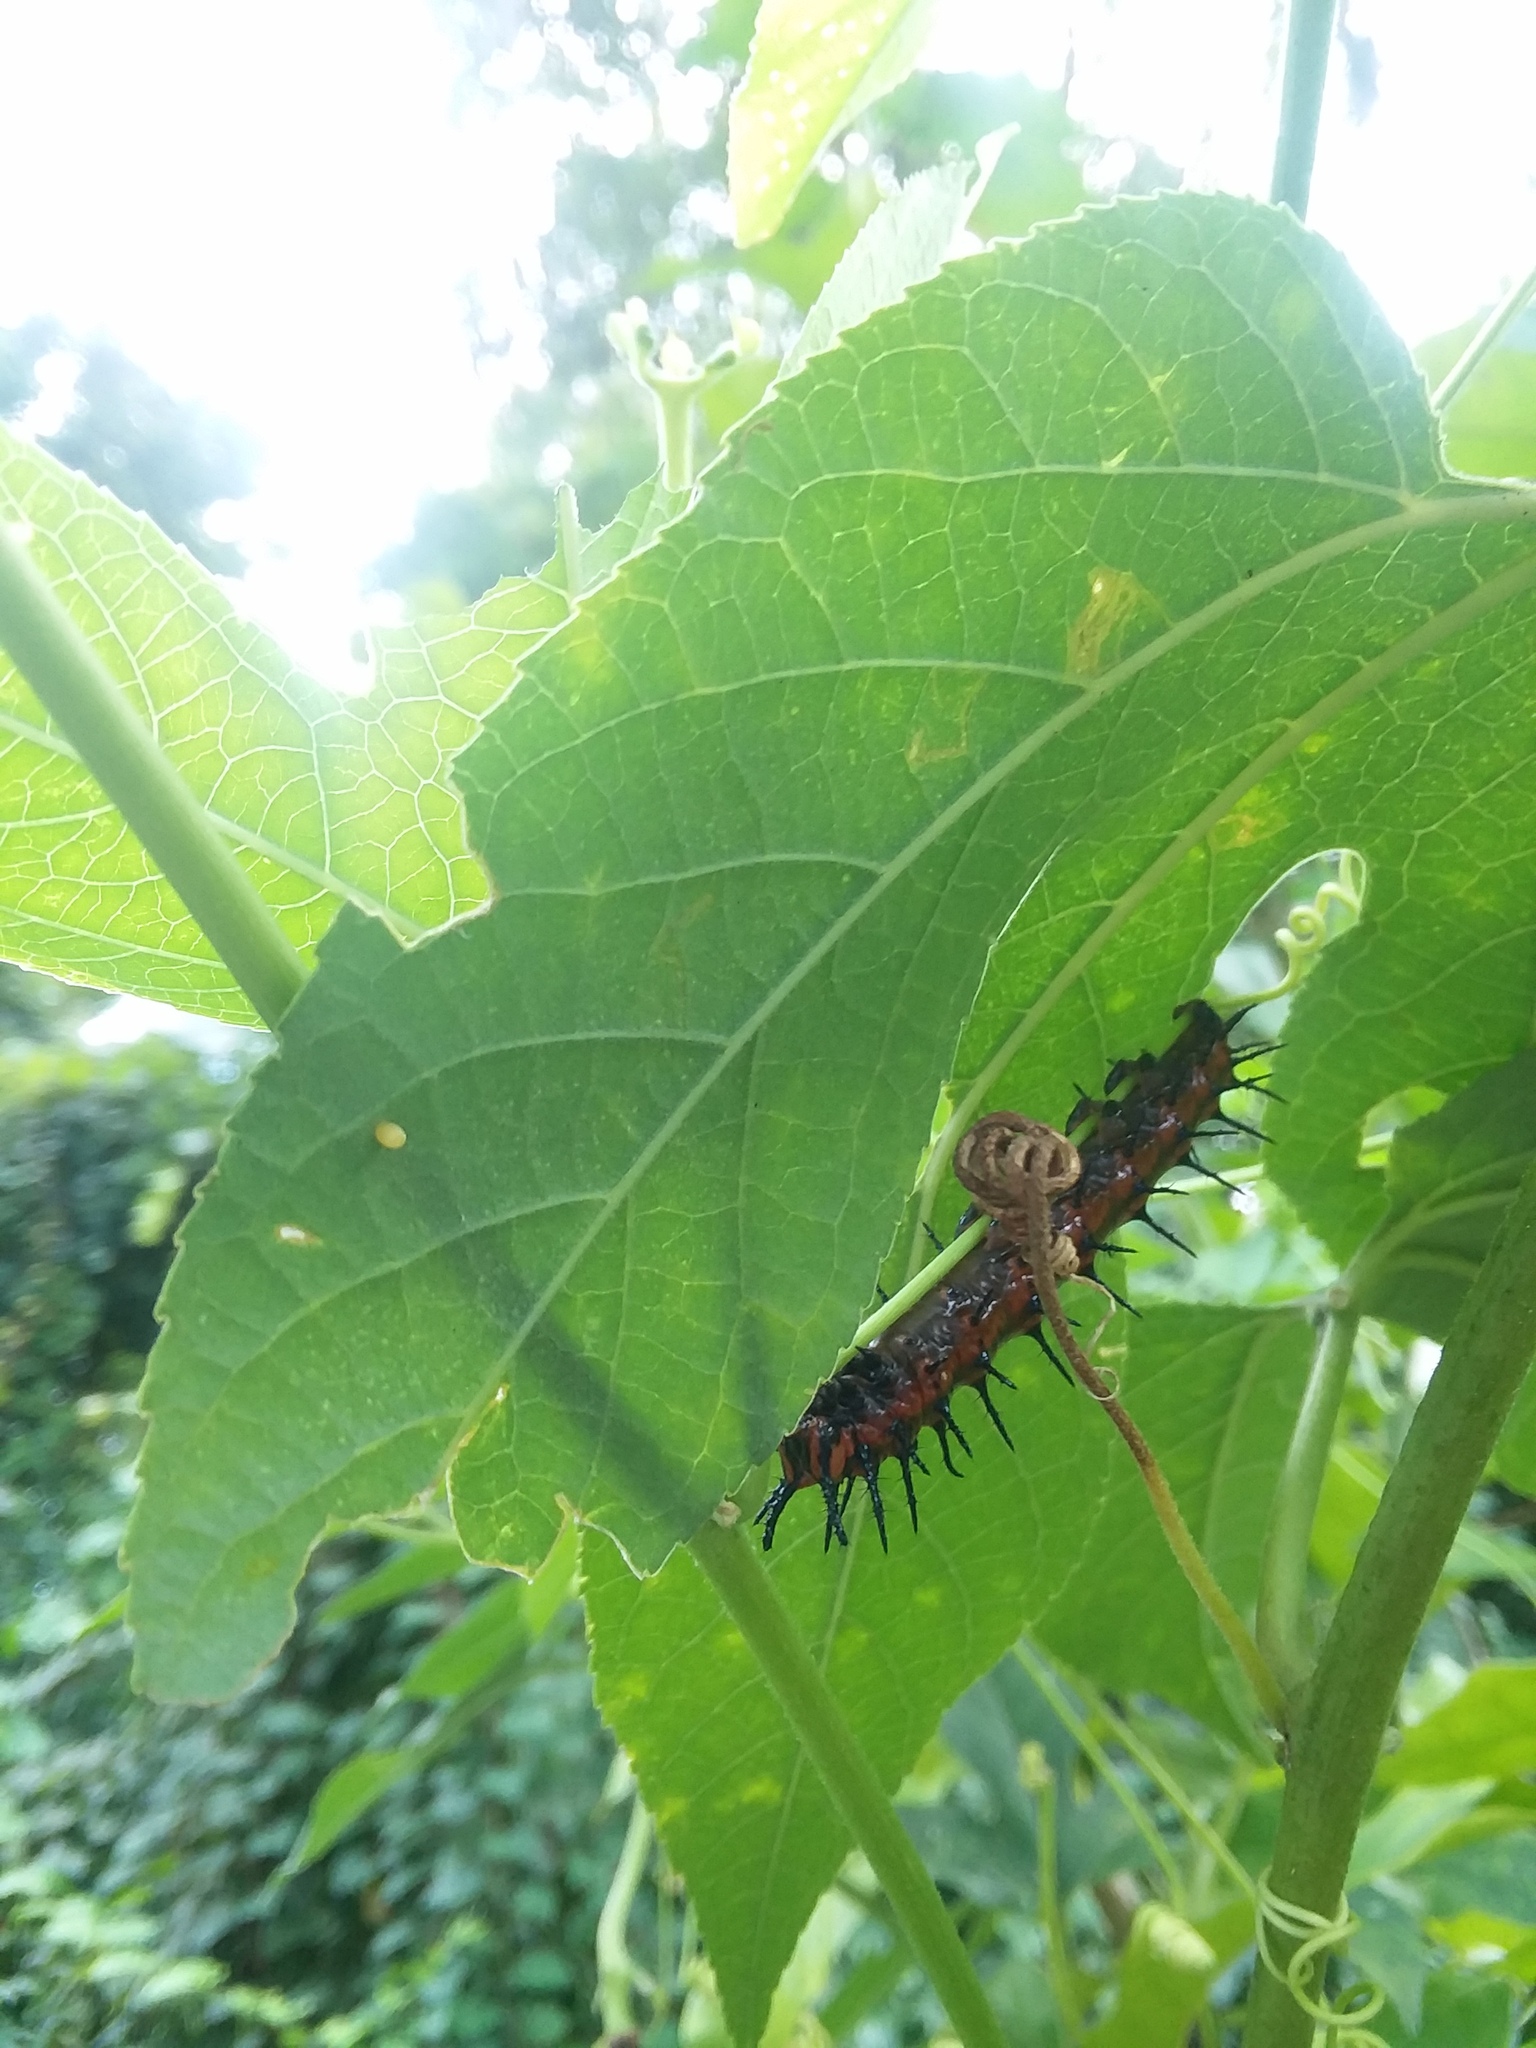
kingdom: Animalia
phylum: Arthropoda
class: Insecta
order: Lepidoptera
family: Nymphalidae
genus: Dione
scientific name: Dione vanillae
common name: Gulf fritillary
